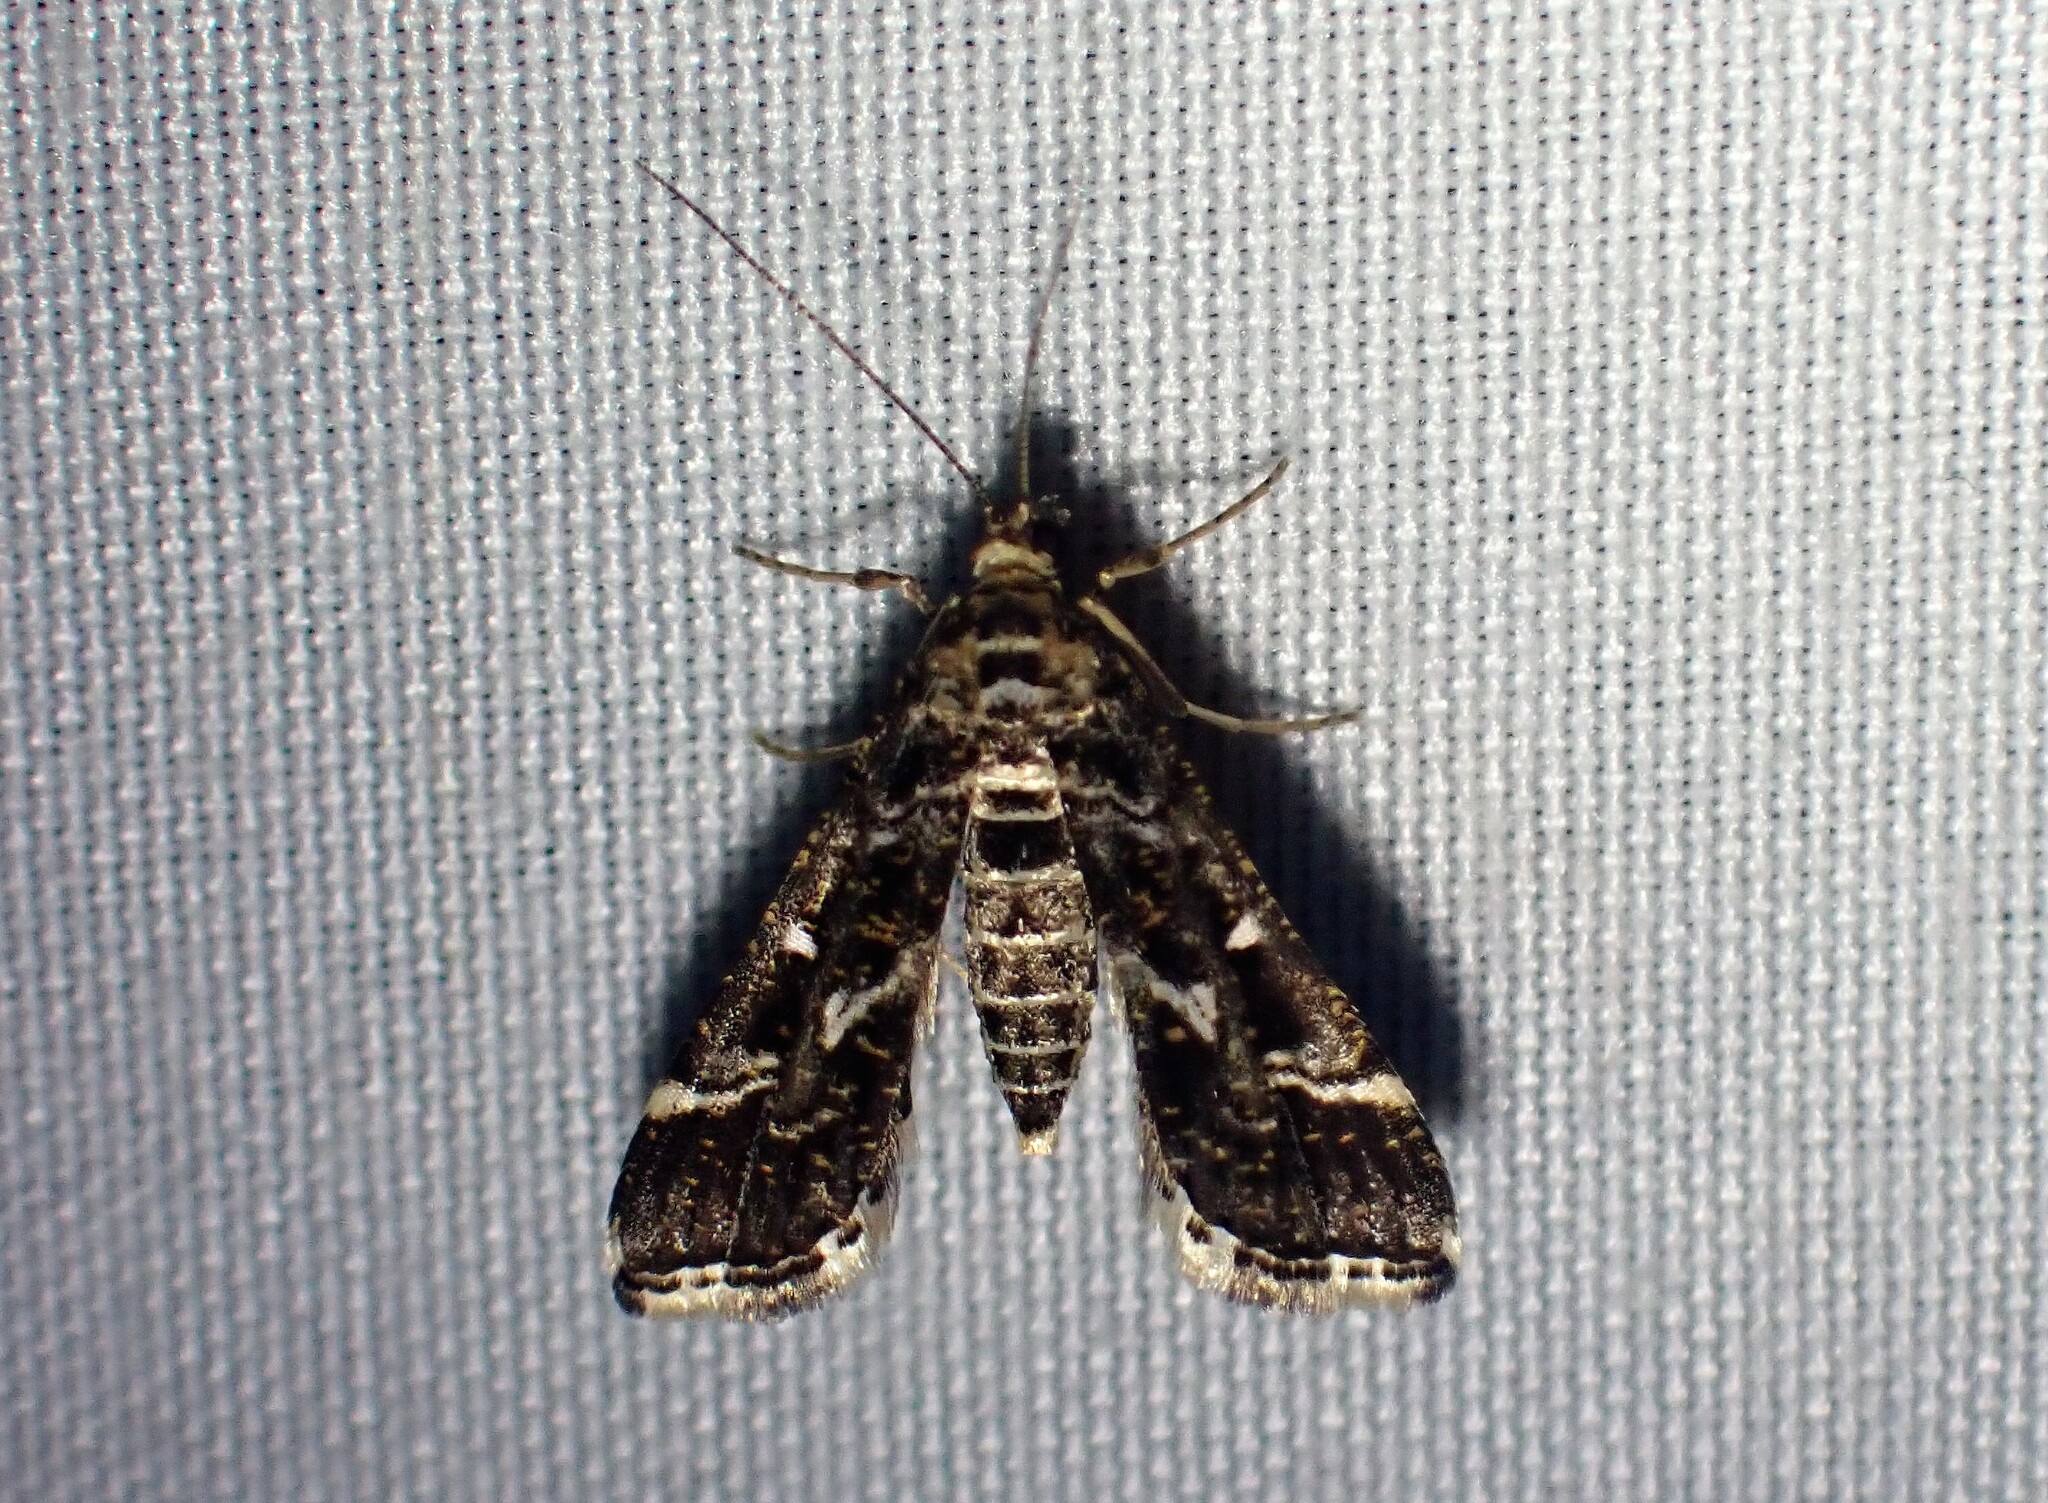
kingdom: Animalia
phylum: Arthropoda
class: Insecta
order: Lepidoptera
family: Crambidae
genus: Diasemiopsis
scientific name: Diasemiopsis ramburialis
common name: Vagrant china-mark
